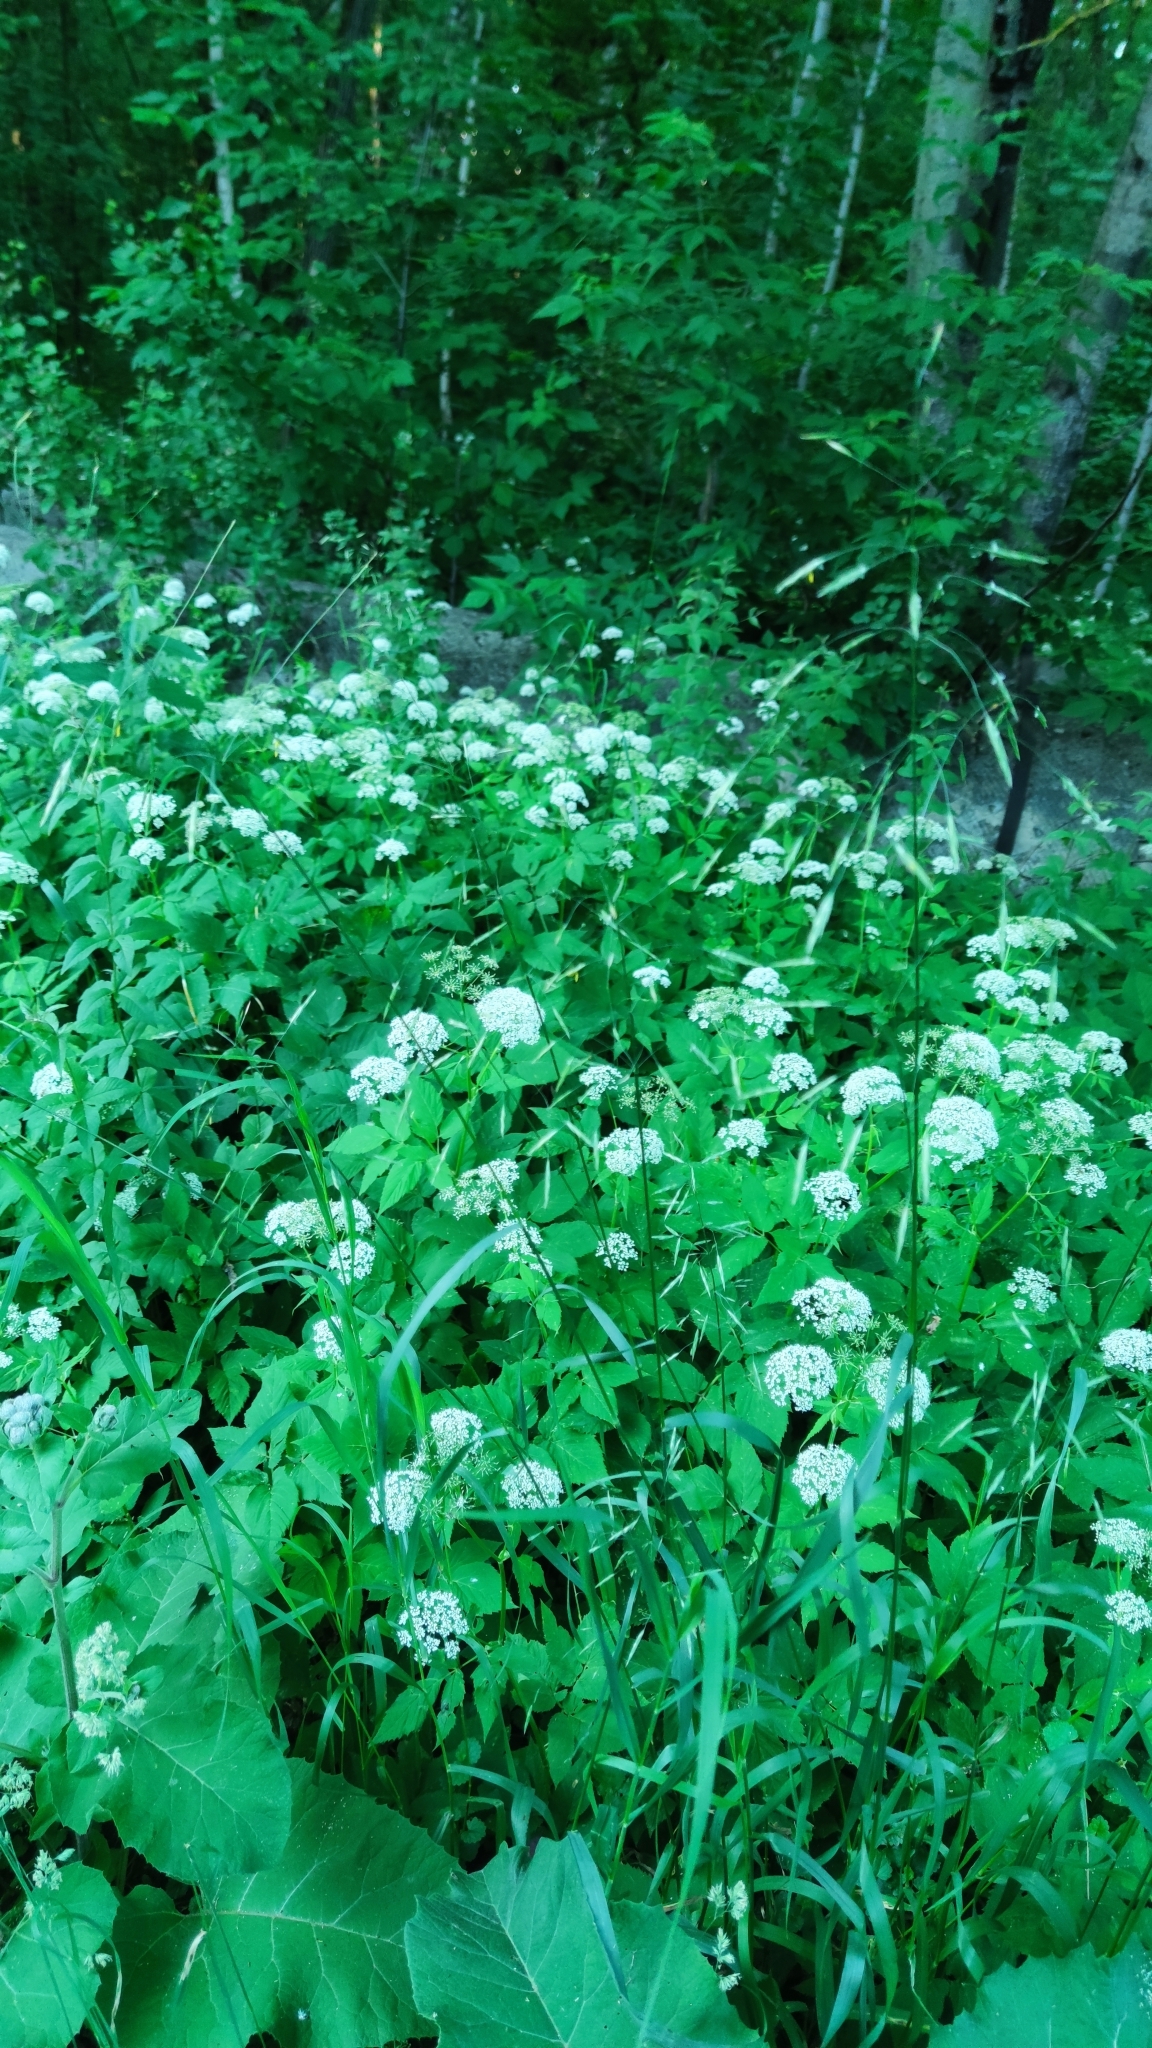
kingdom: Plantae
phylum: Tracheophyta
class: Liliopsida
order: Poales
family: Poaceae
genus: Bromus
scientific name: Bromus inermis
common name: Smooth brome
